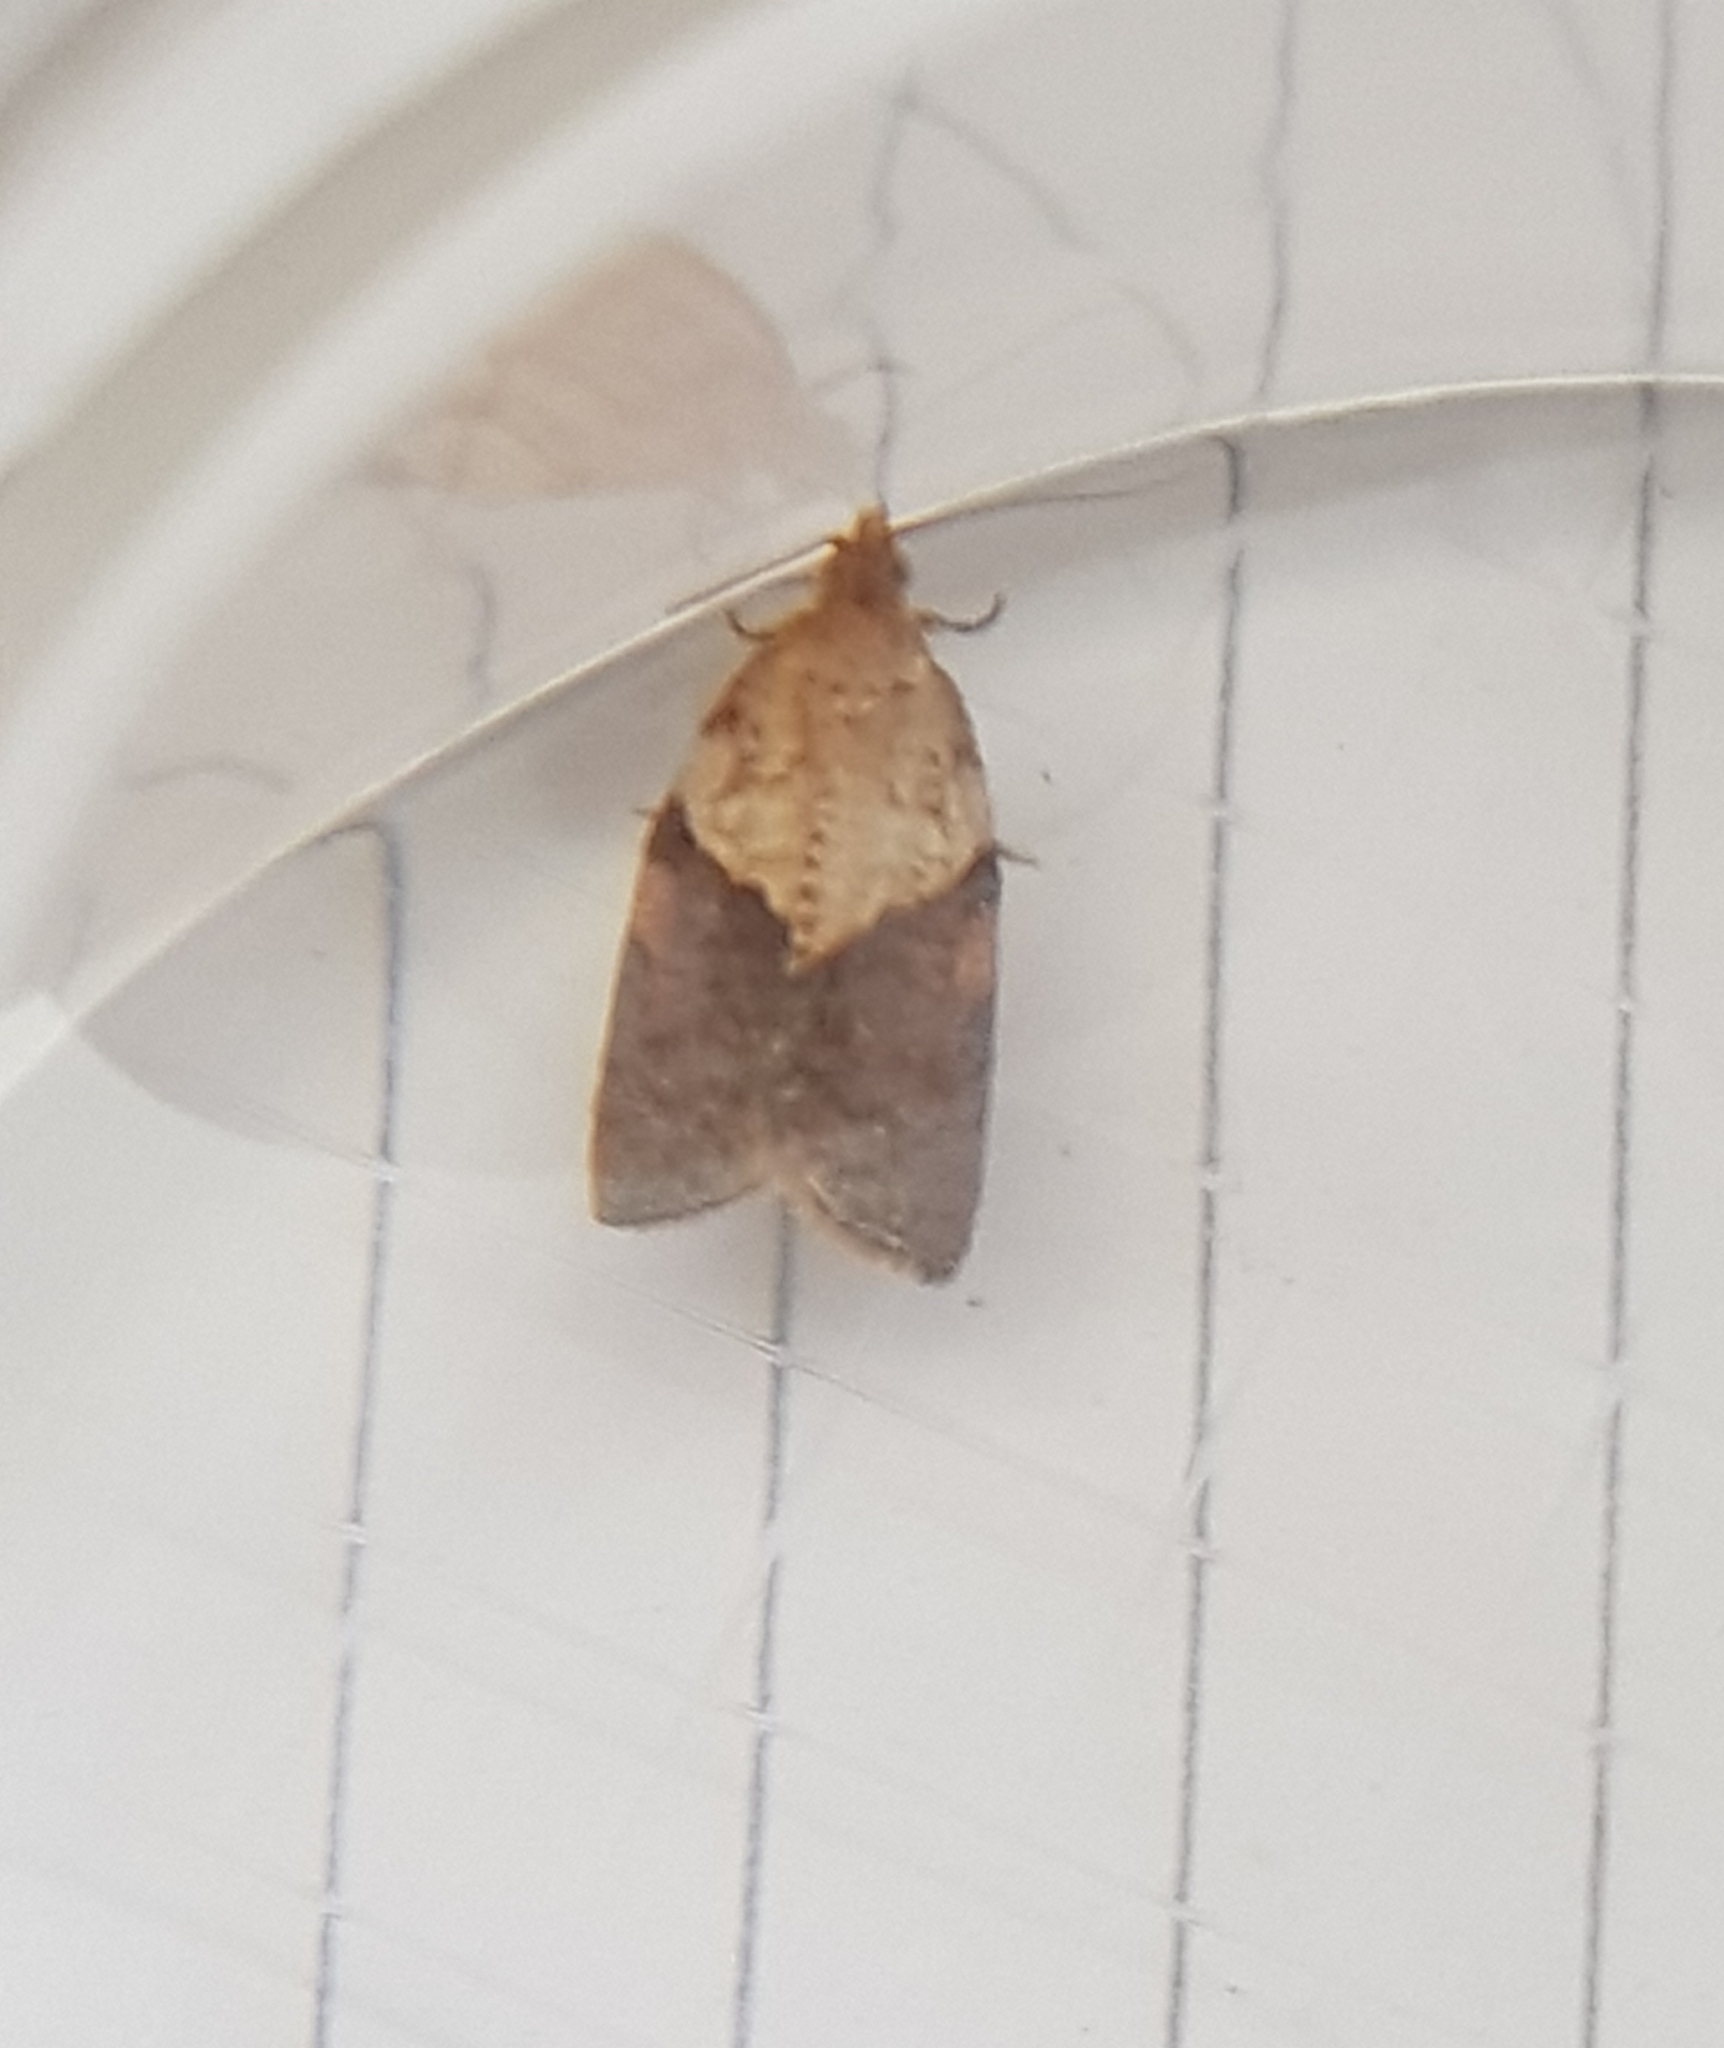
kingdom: Animalia
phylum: Arthropoda
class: Insecta
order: Lepidoptera
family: Tortricidae
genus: Epiphyas
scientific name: Epiphyas postvittana
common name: Light brown apple moth
